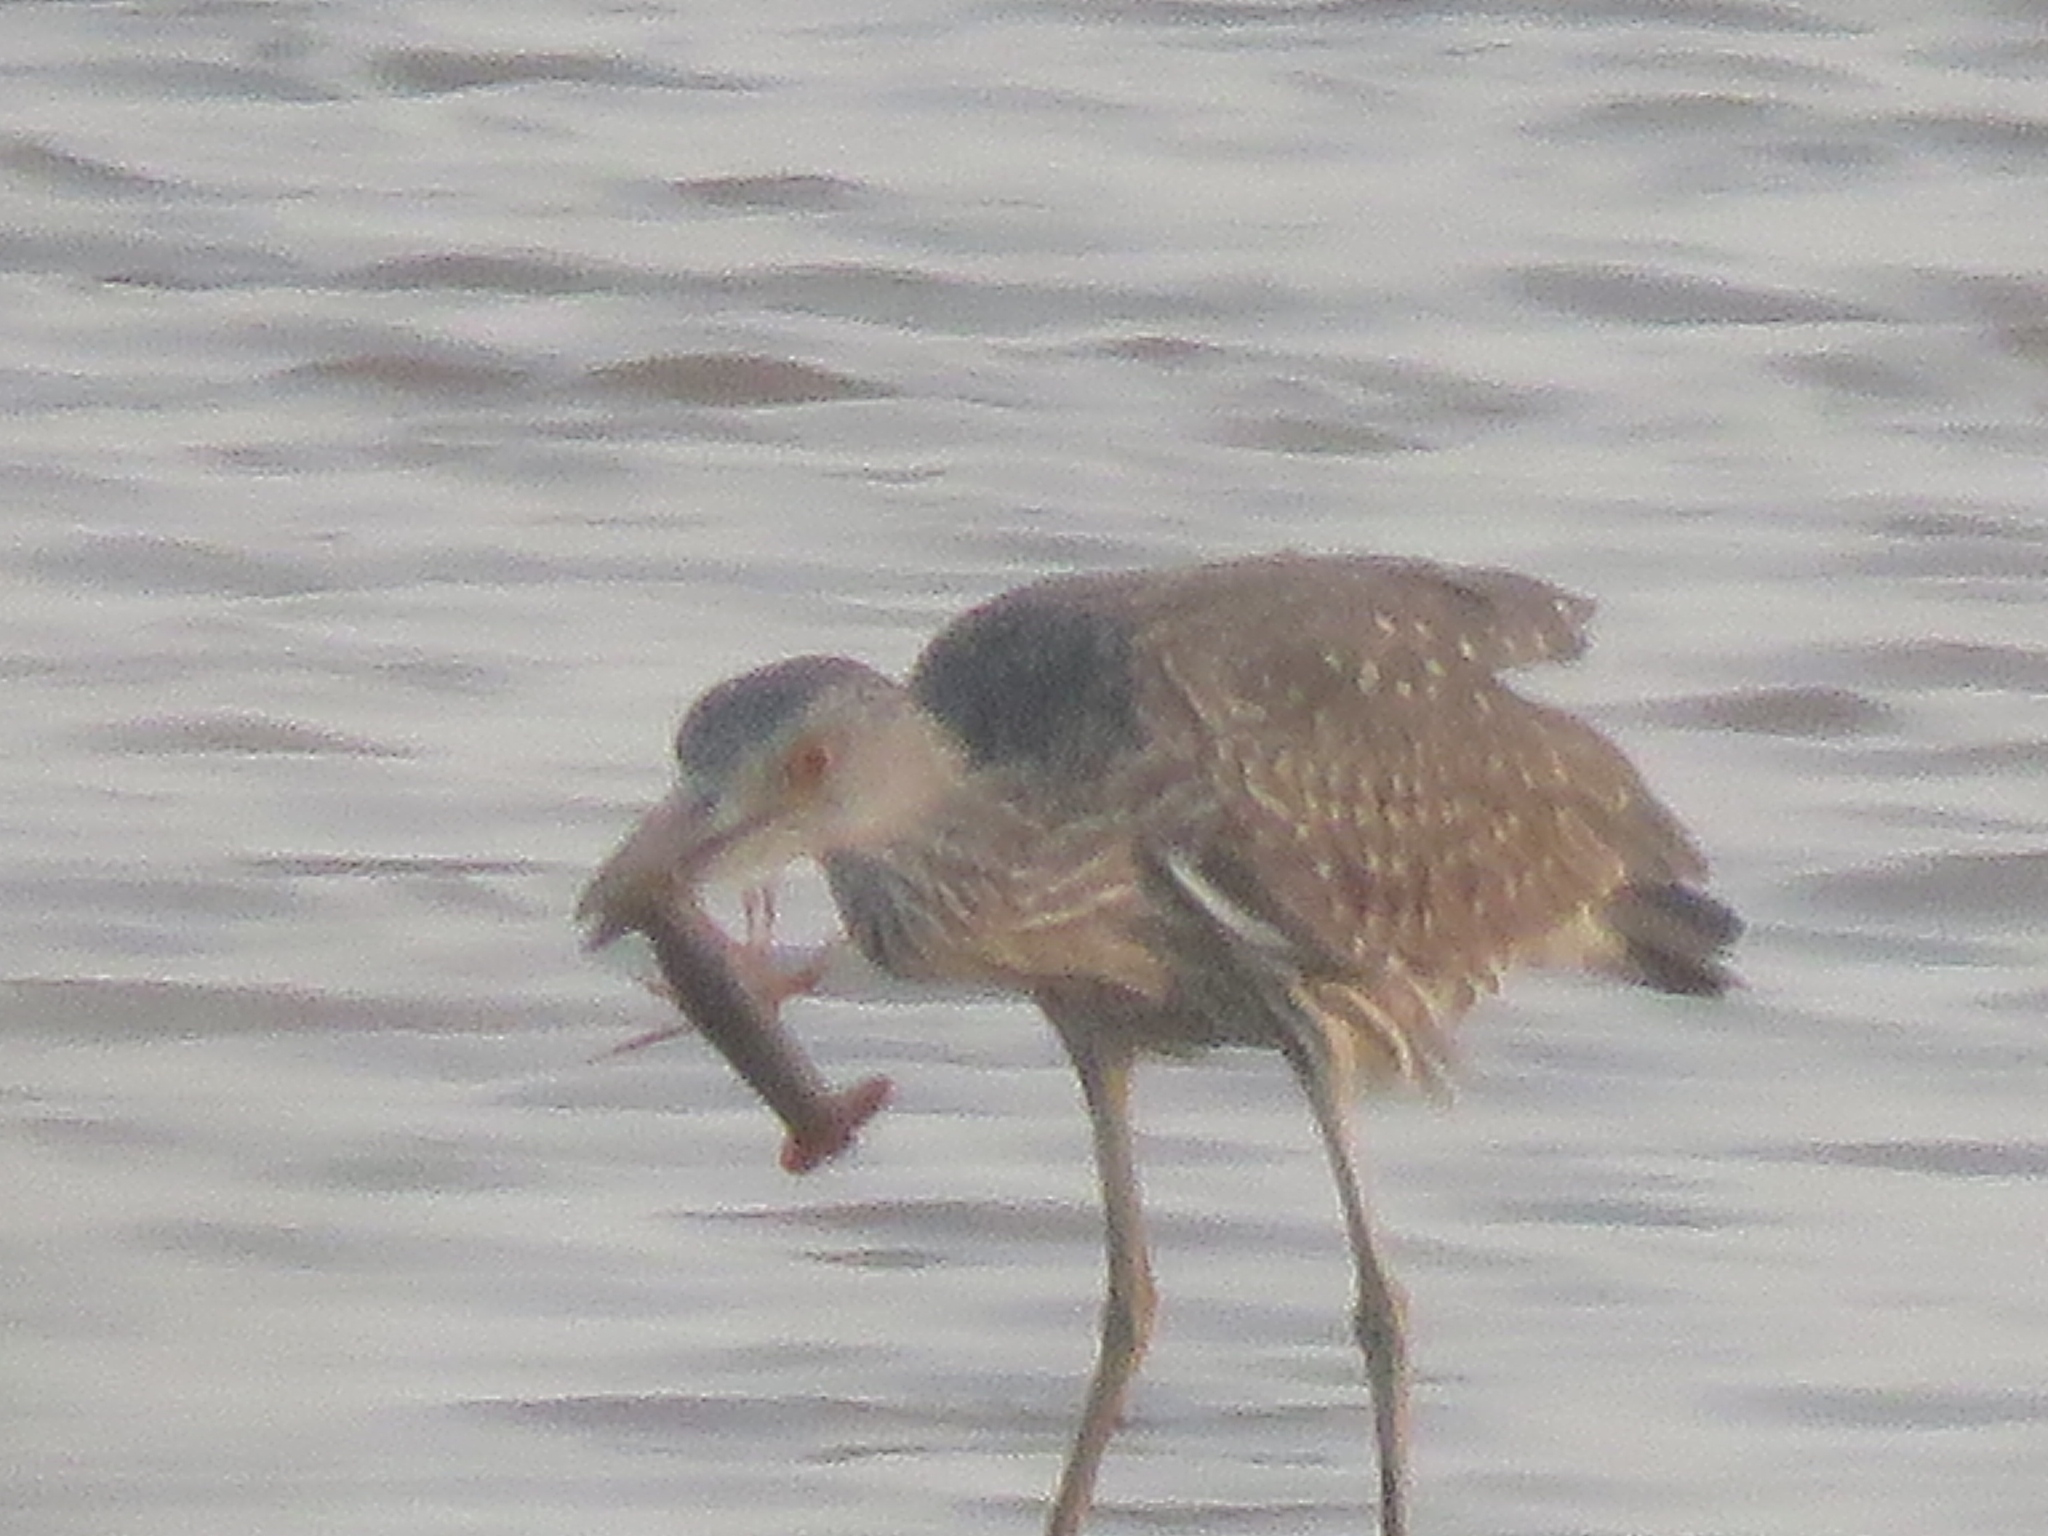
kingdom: Animalia
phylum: Chordata
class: Aves
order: Pelecaniformes
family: Ardeidae
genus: Nyctanassa
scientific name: Nyctanassa violacea
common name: Yellow-crowned night heron
